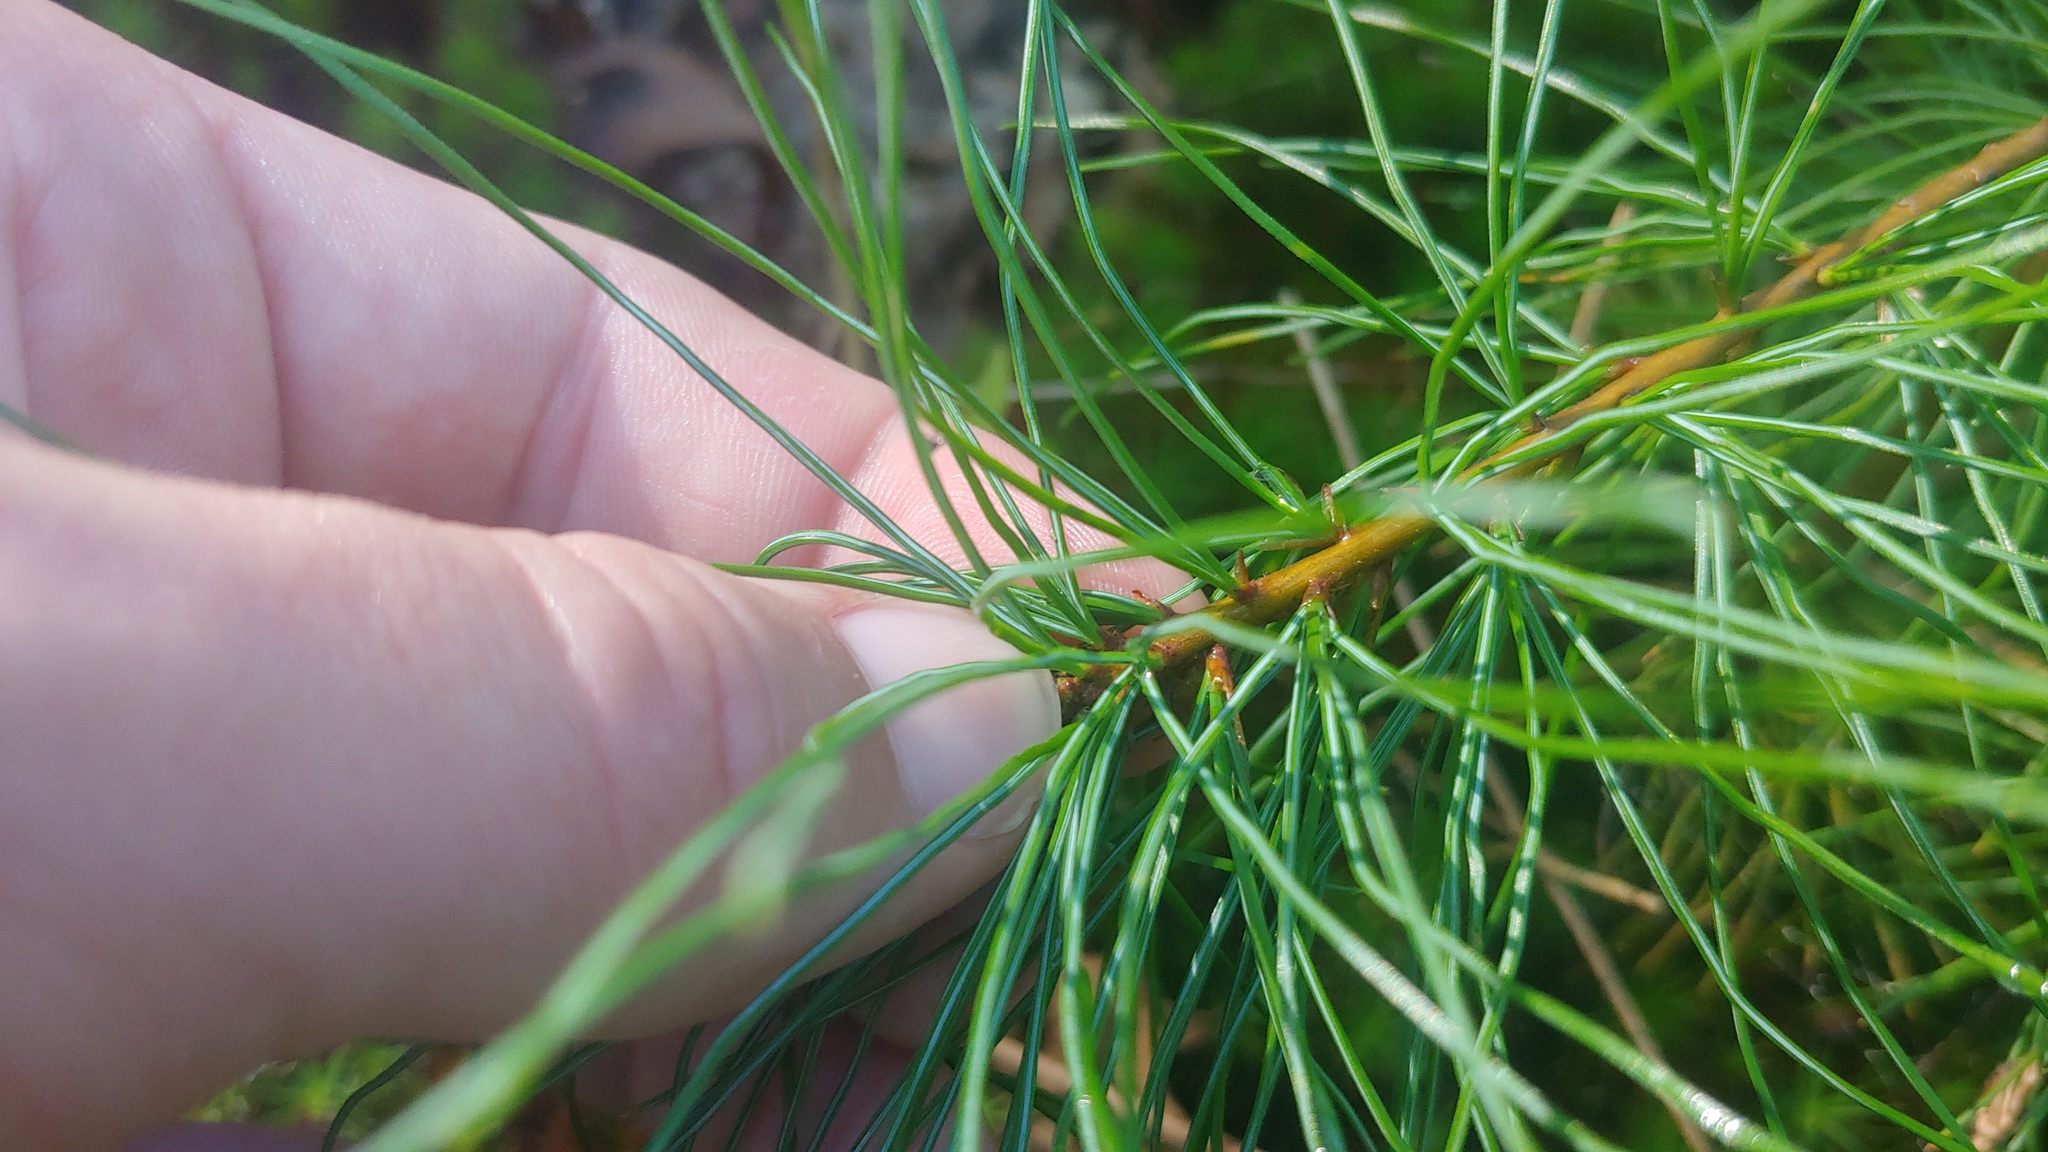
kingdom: Plantae
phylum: Tracheophyta
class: Pinopsida
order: Pinales
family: Pinaceae
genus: Pinus
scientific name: Pinus strobus
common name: Weymouth pine
